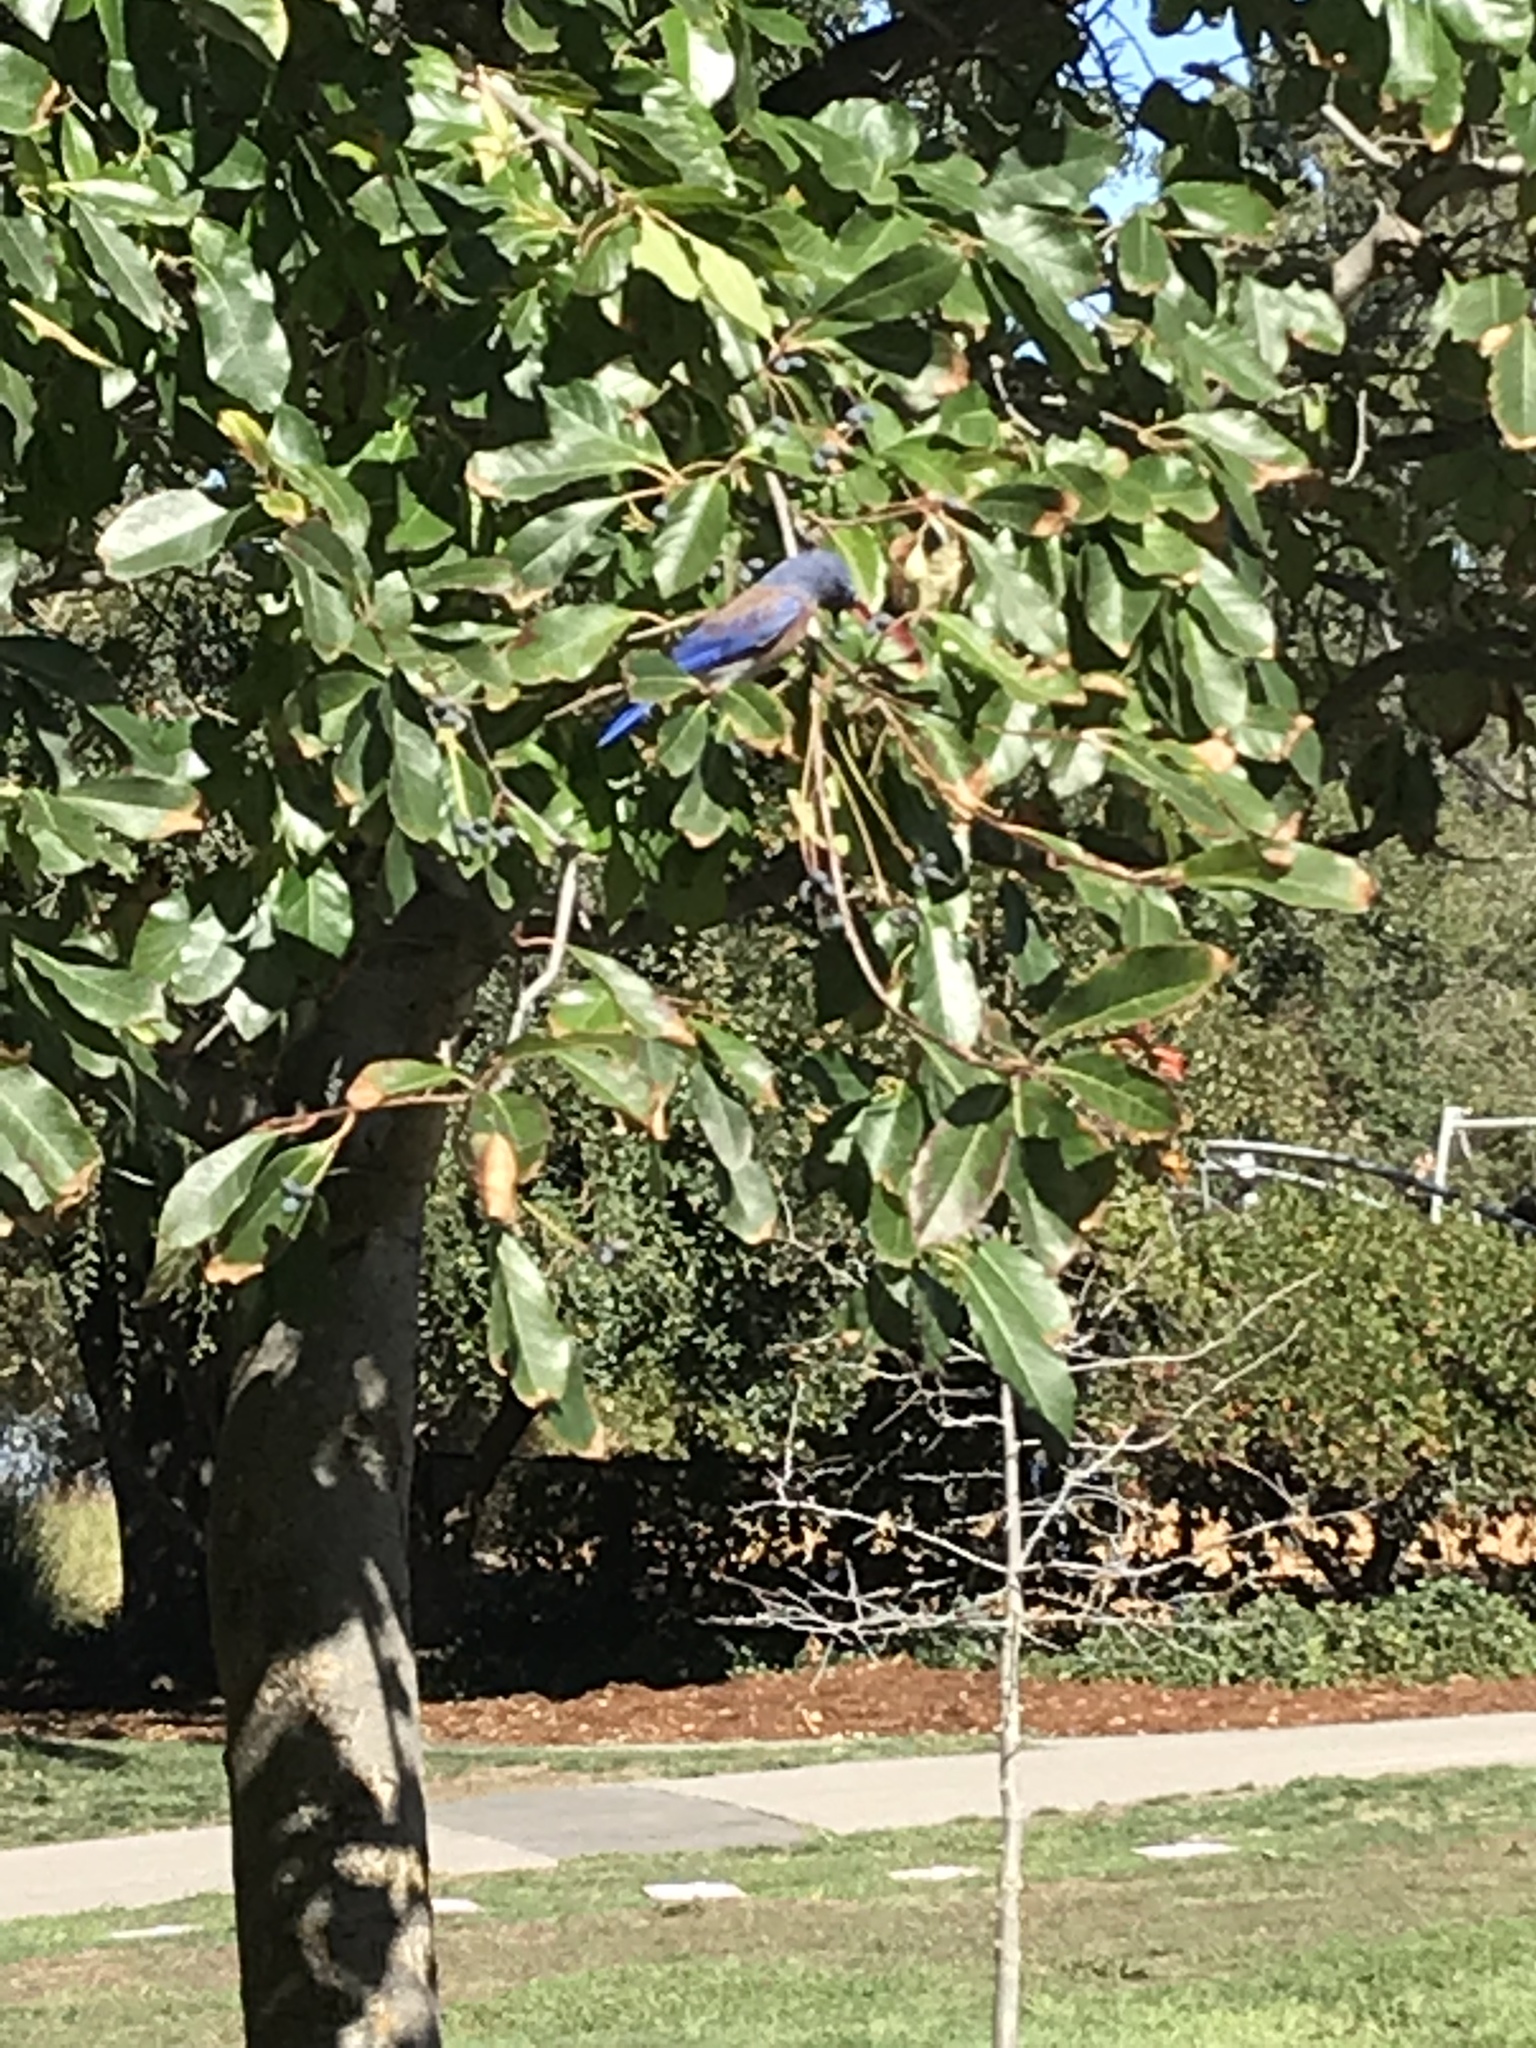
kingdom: Animalia
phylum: Chordata
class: Aves
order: Passeriformes
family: Turdidae
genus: Sialia
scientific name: Sialia mexicana
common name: Western bluebird
